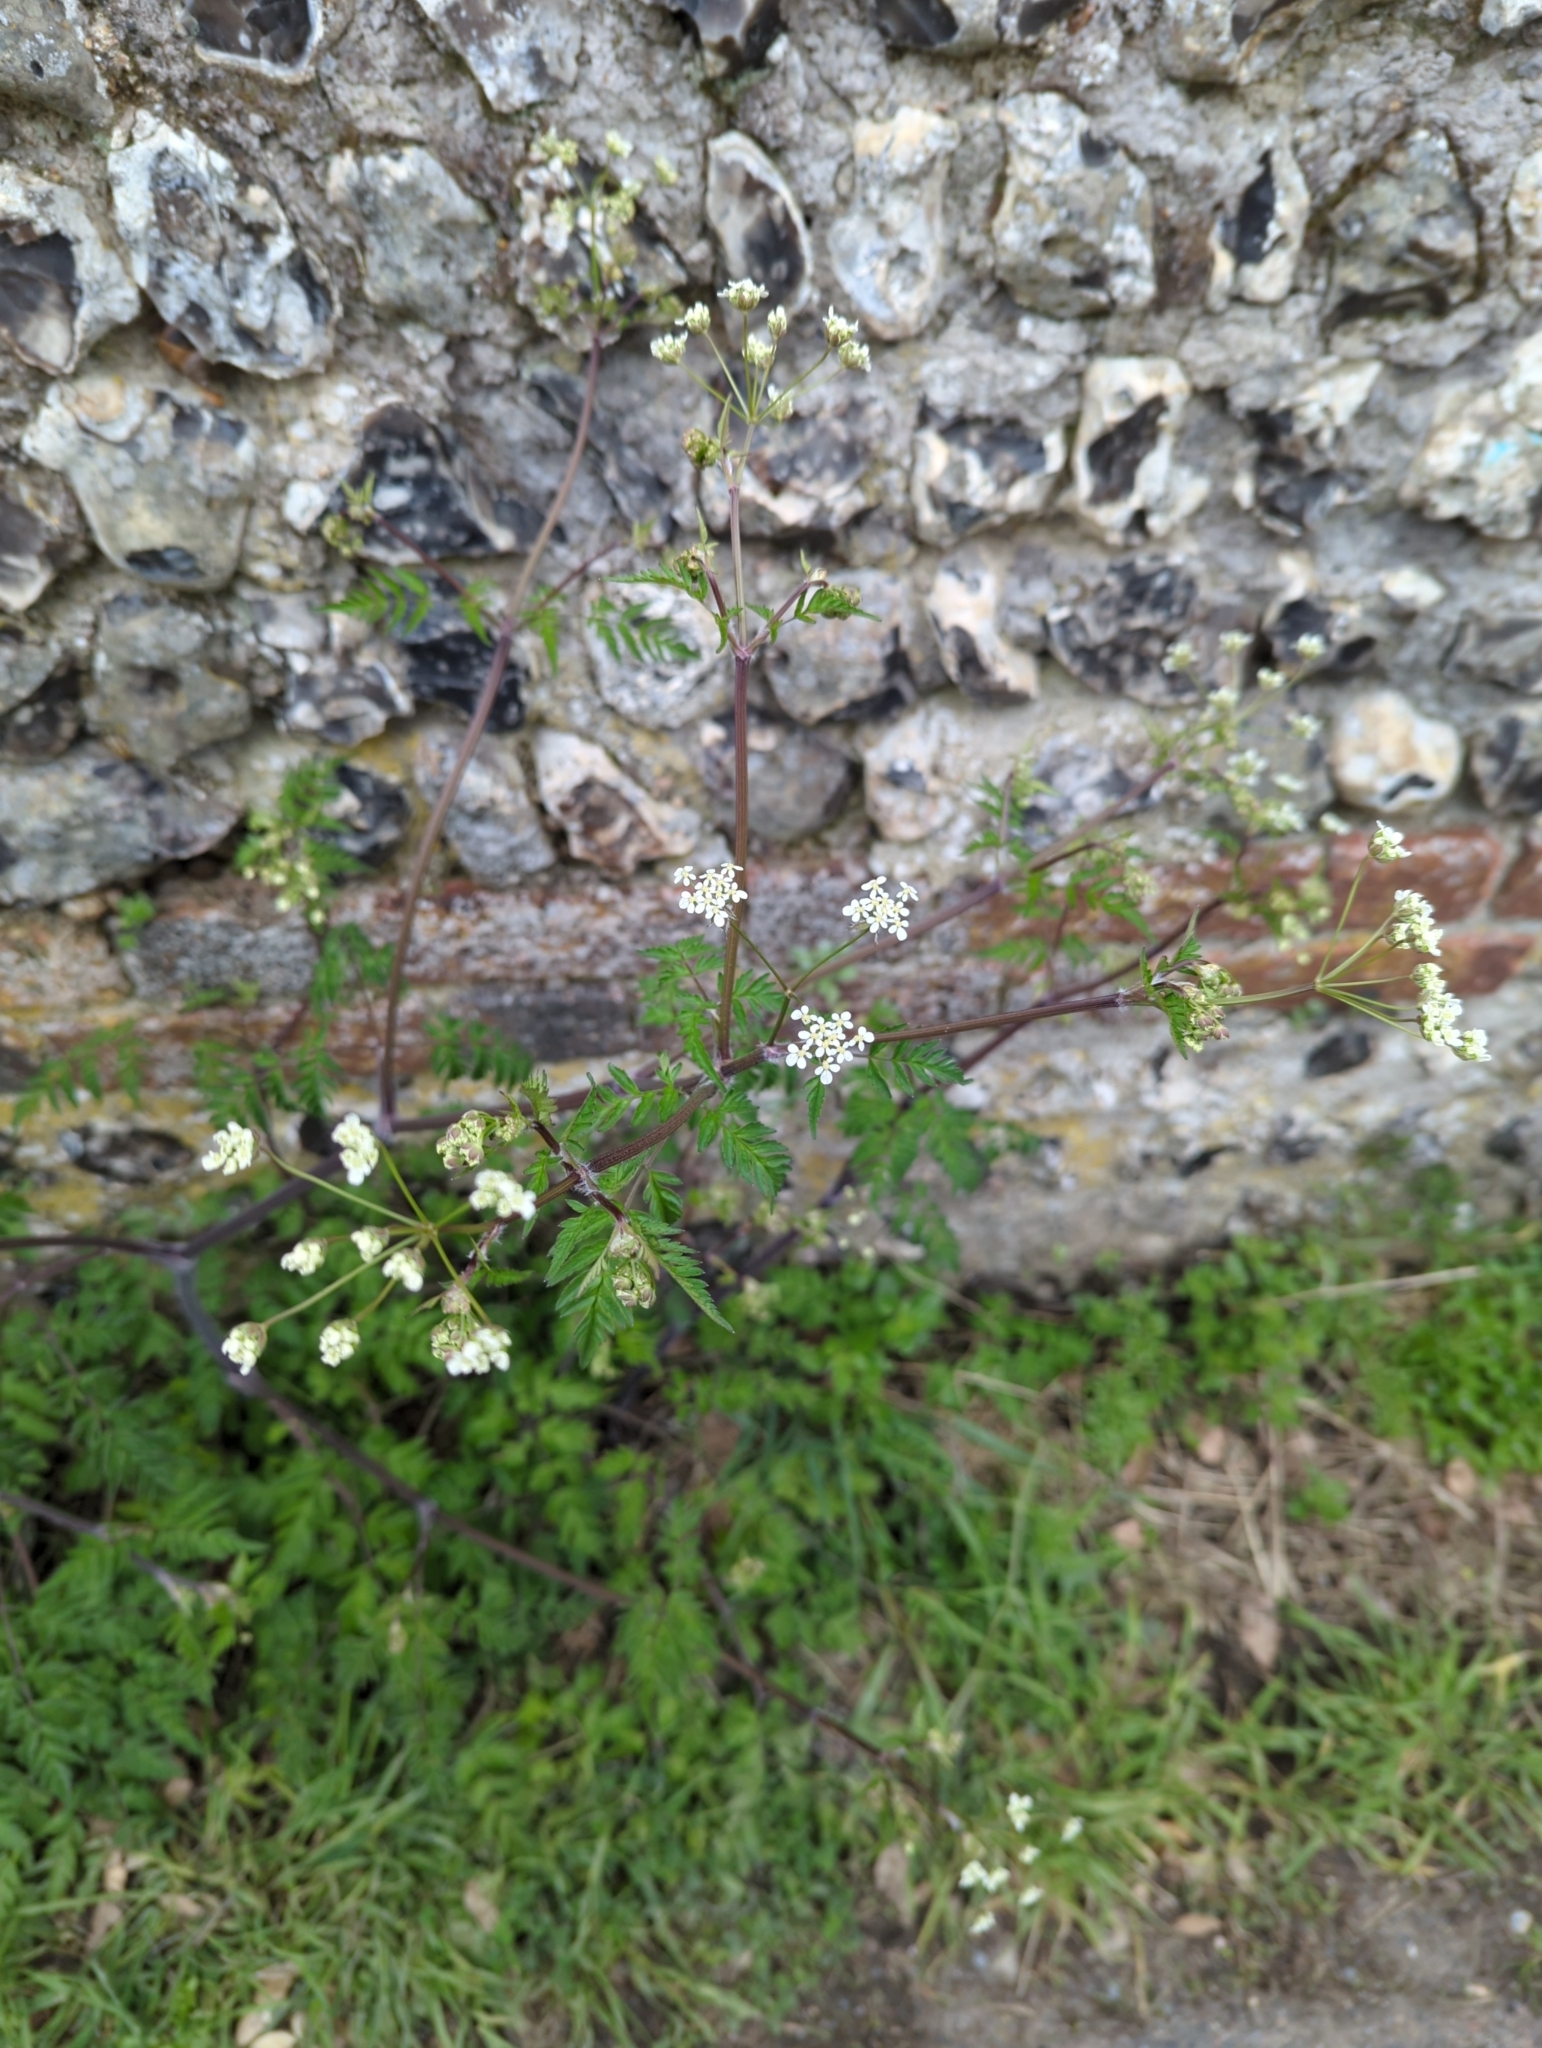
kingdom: Plantae
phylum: Tracheophyta
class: Magnoliopsida
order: Apiales
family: Apiaceae
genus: Anthriscus
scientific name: Anthriscus sylvestris
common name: Cow parsley
